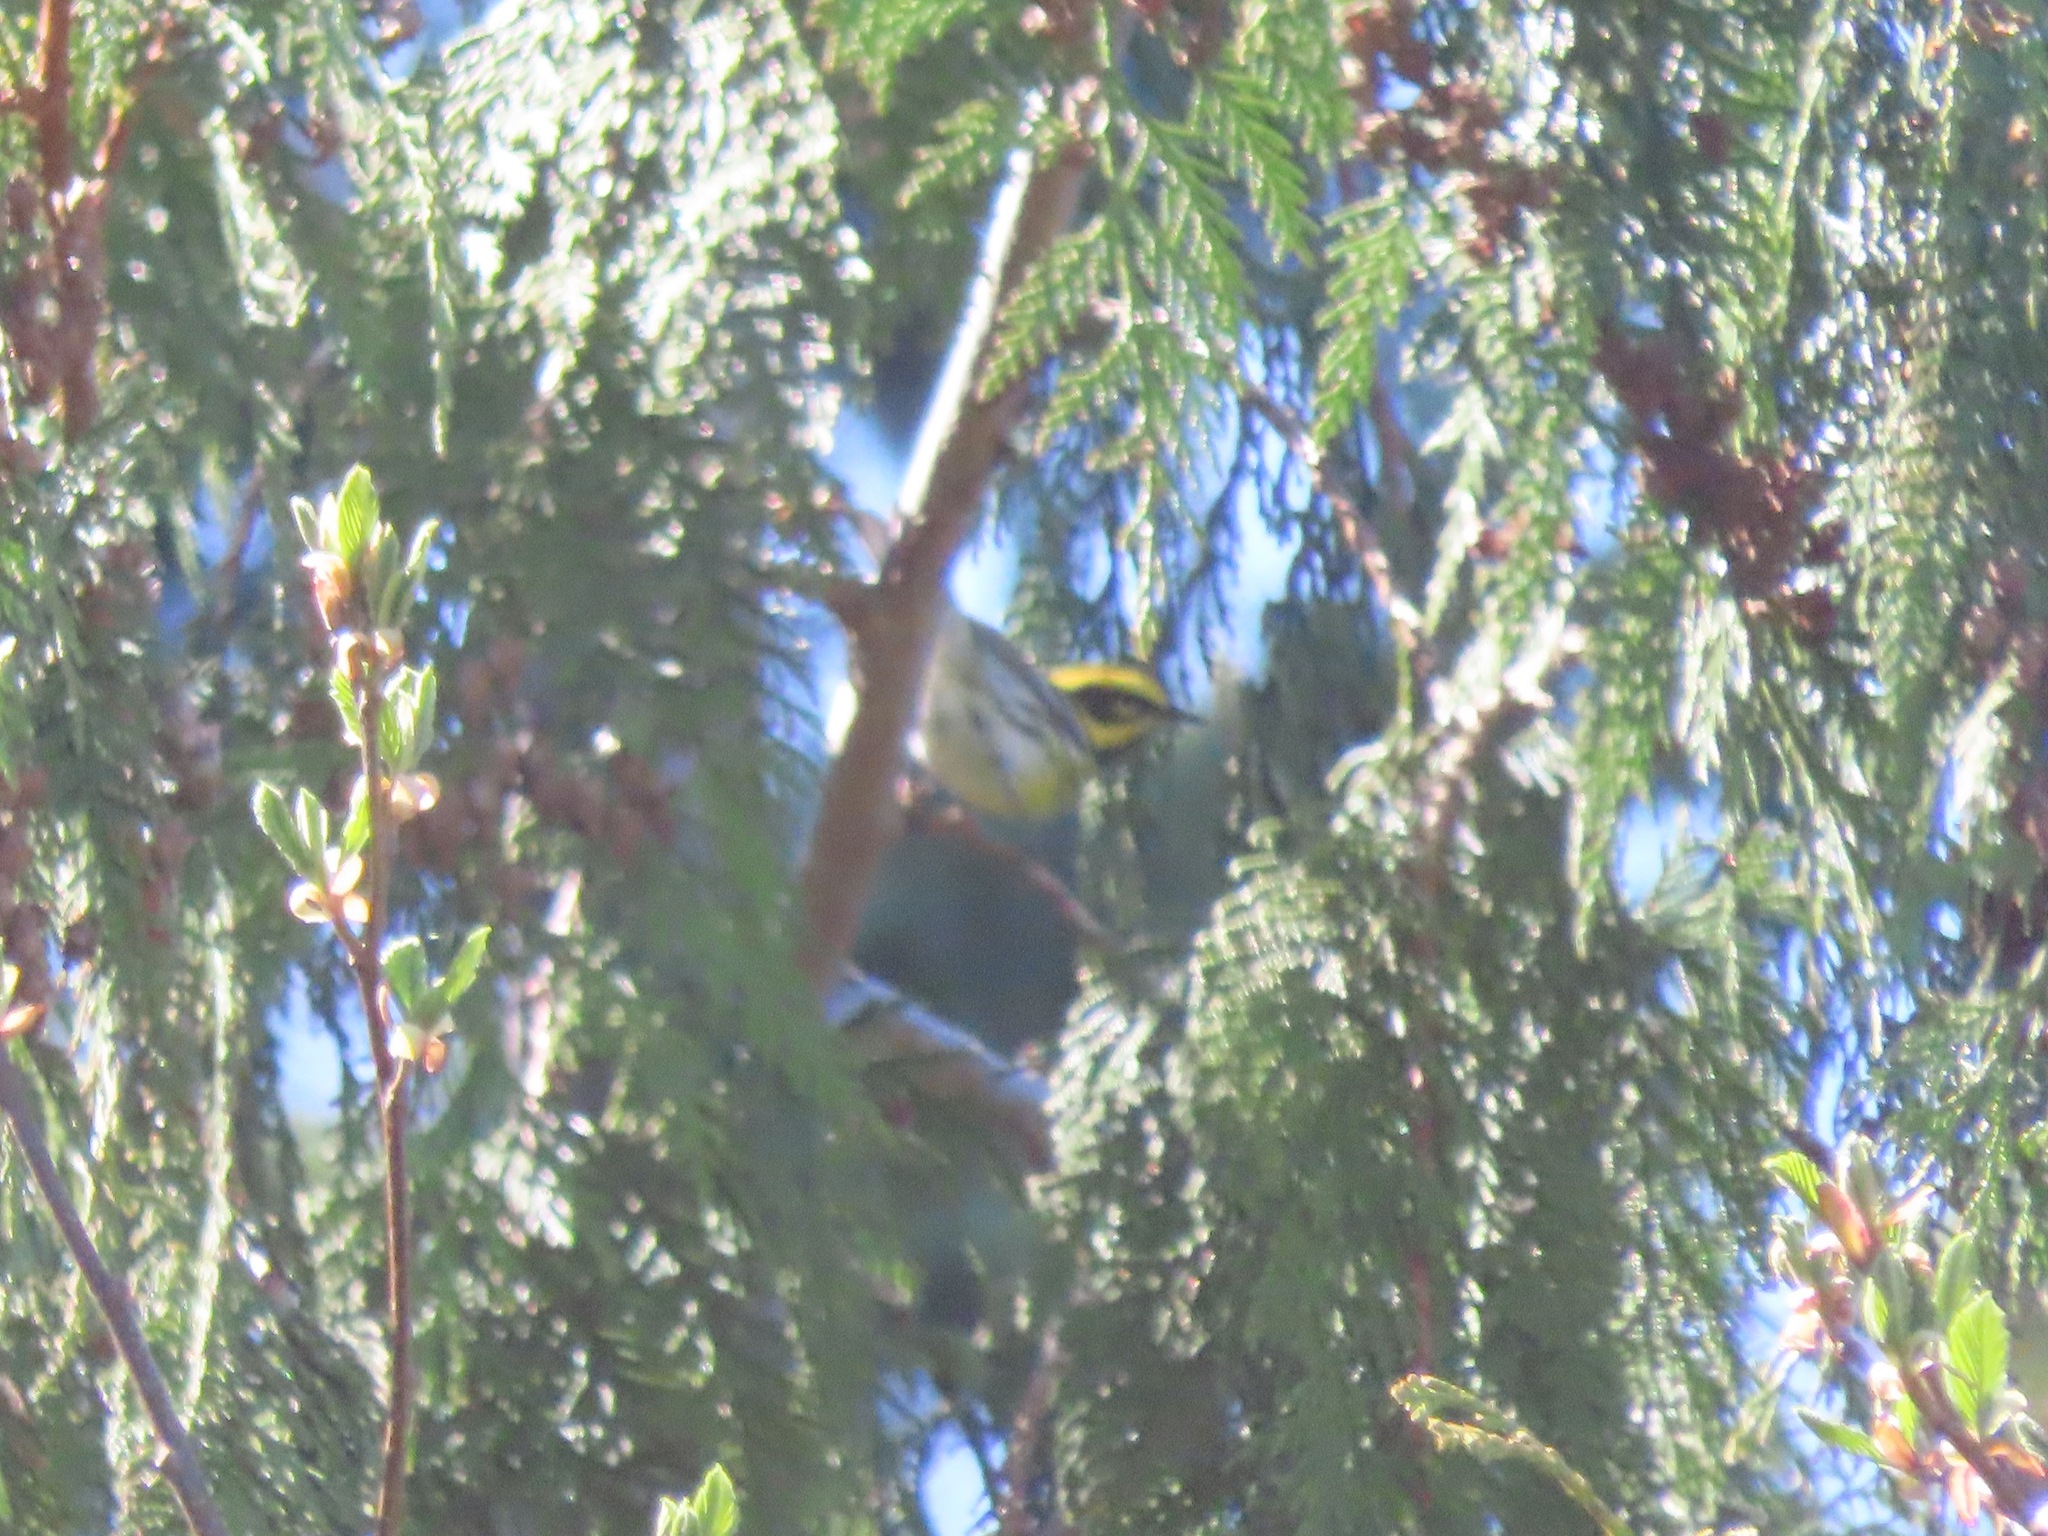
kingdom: Animalia
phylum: Chordata
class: Aves
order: Passeriformes
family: Parulidae
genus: Setophaga
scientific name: Setophaga townsendi
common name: Townsend's warbler
